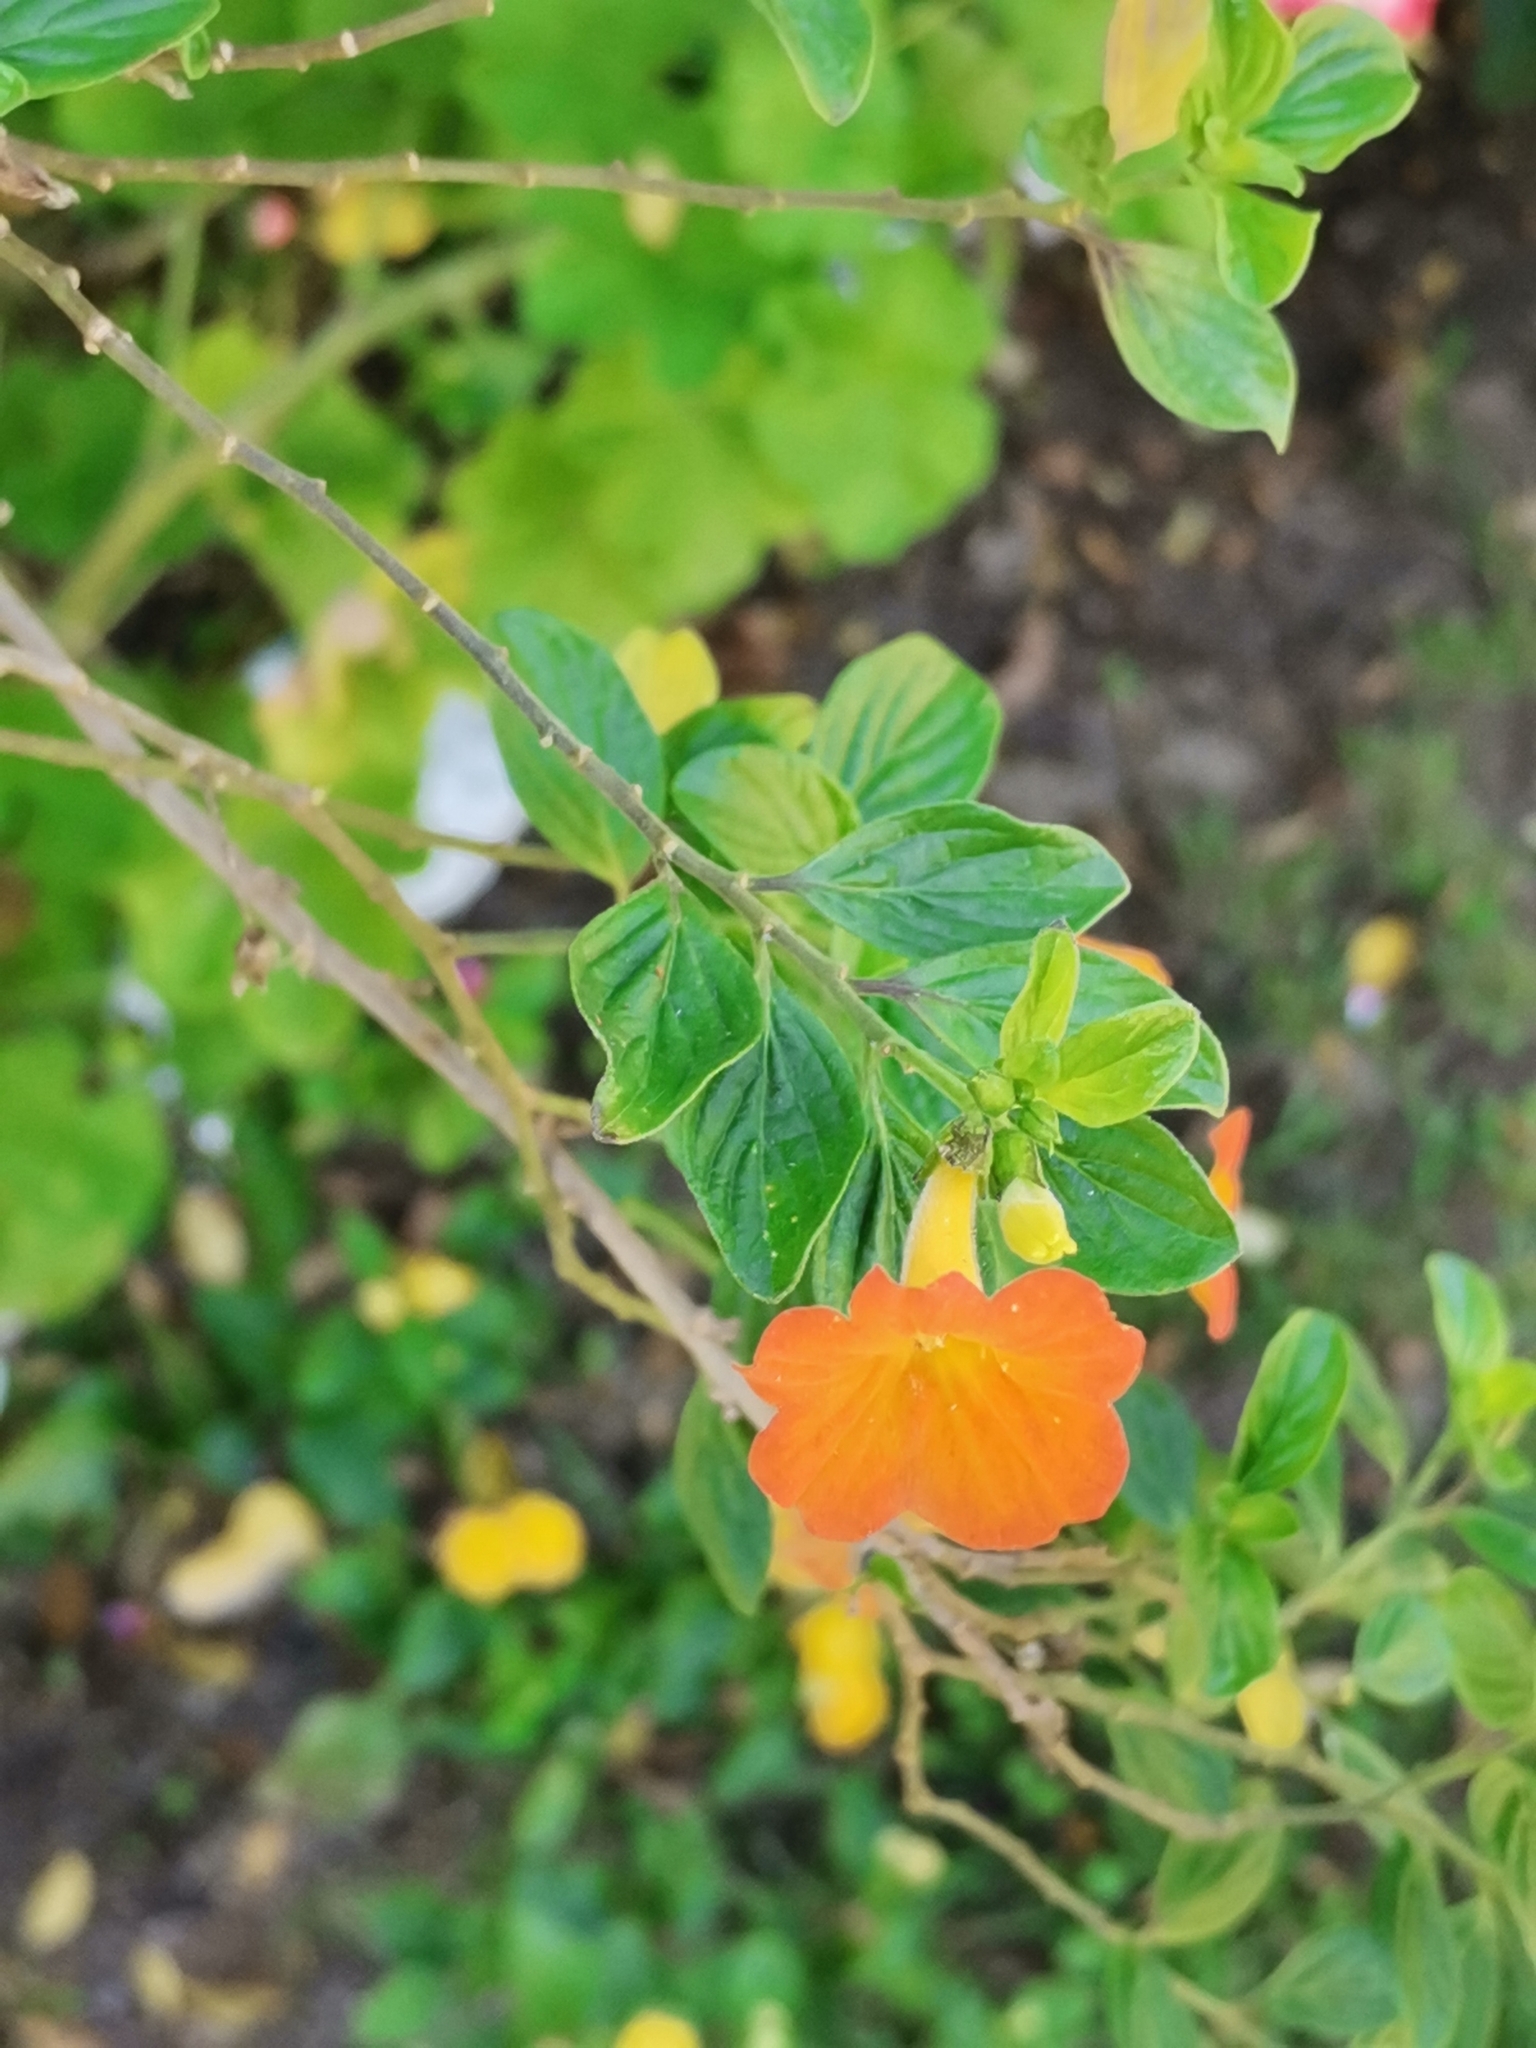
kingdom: Plantae
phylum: Tracheophyta
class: Magnoliopsida
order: Solanales
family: Solanaceae
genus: Streptosolen
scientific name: Streptosolen jamesonii
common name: Marmalade bush
